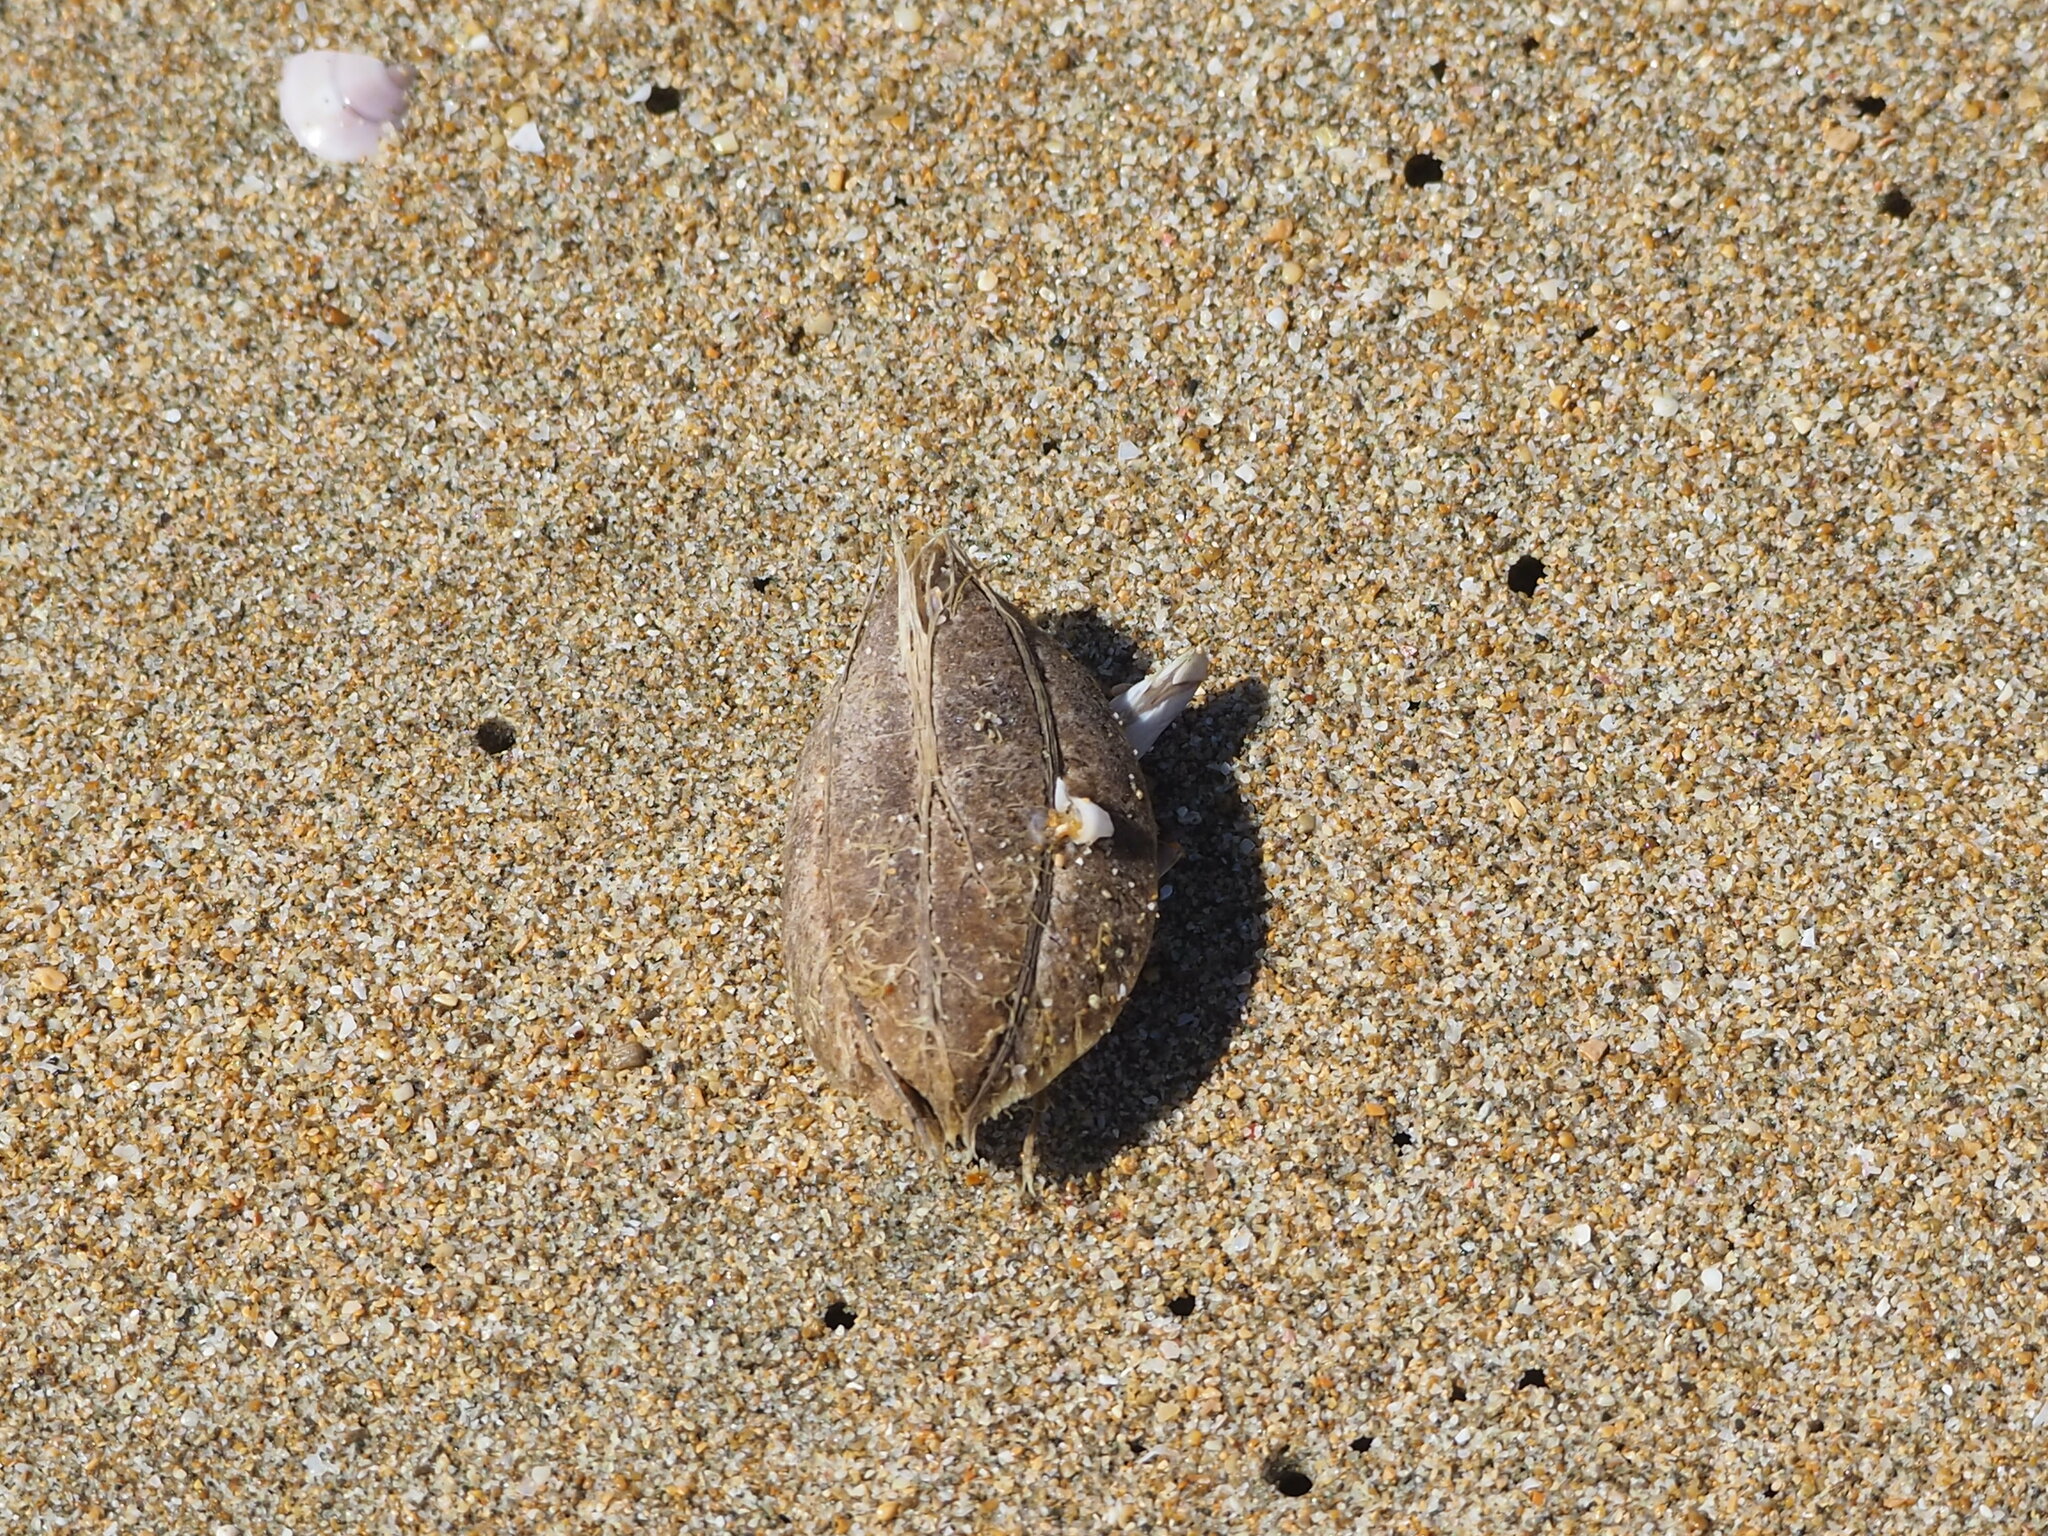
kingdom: Plantae
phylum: Tracheophyta
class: Magnoliopsida
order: Myrtales
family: Combretaceae
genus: Terminalia
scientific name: Terminalia catappa
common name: Tropical almond
